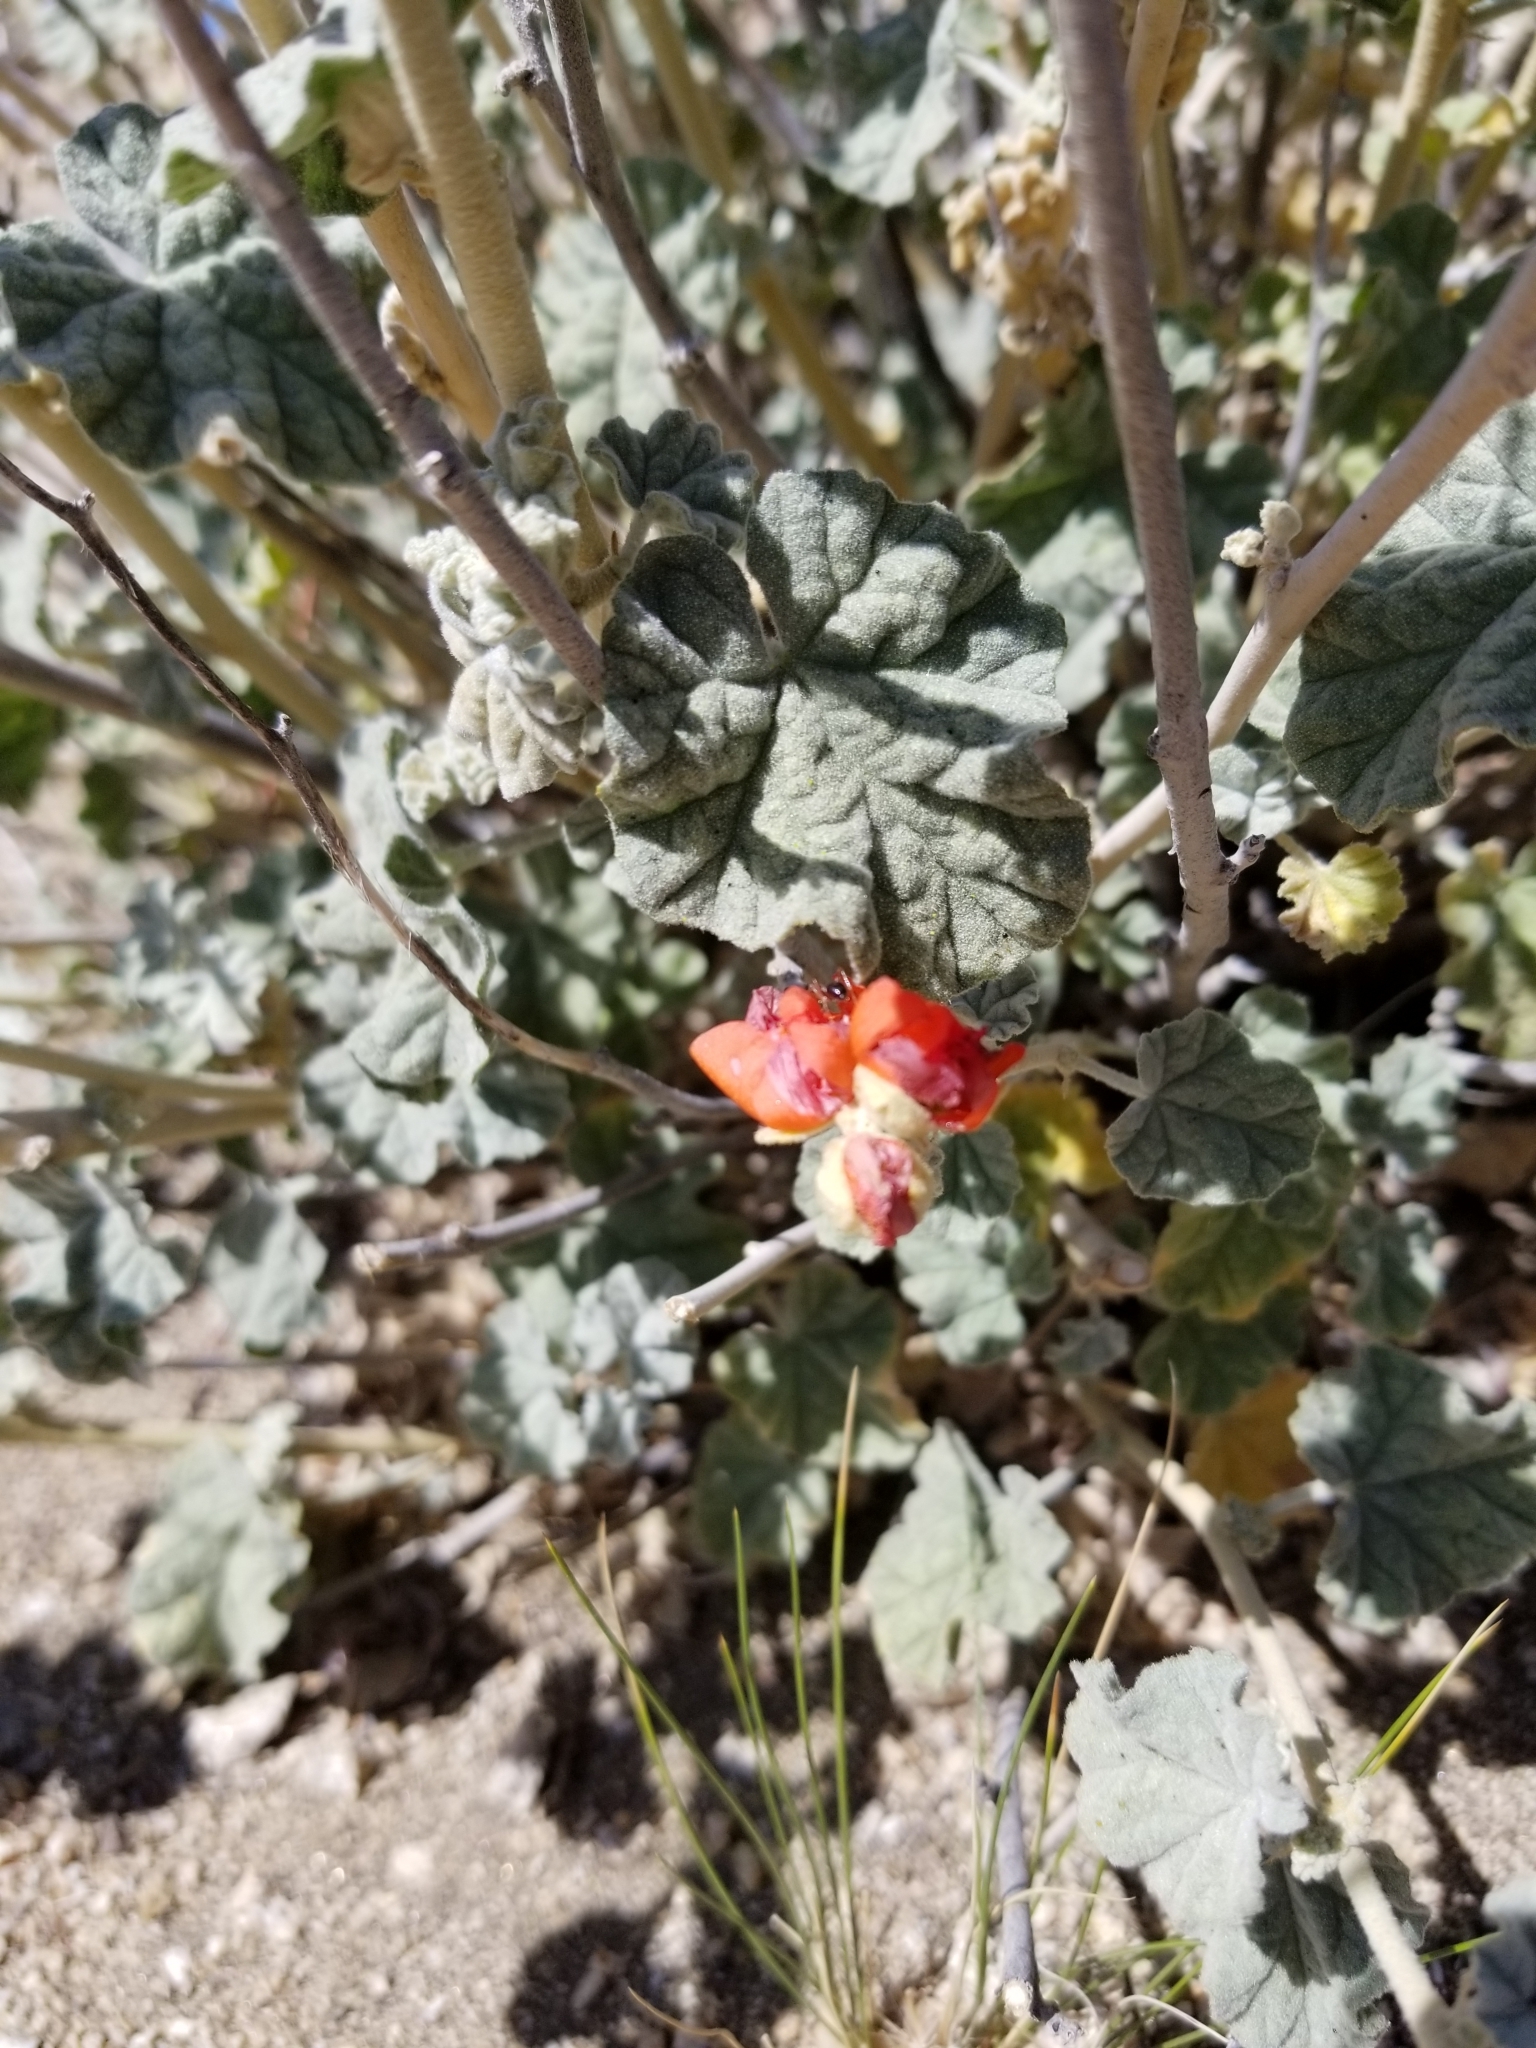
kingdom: Plantae
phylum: Tracheophyta
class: Magnoliopsida
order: Malvales
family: Malvaceae
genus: Sphaeralcea
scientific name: Sphaeralcea ambigua
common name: Apricot globe-mallow
